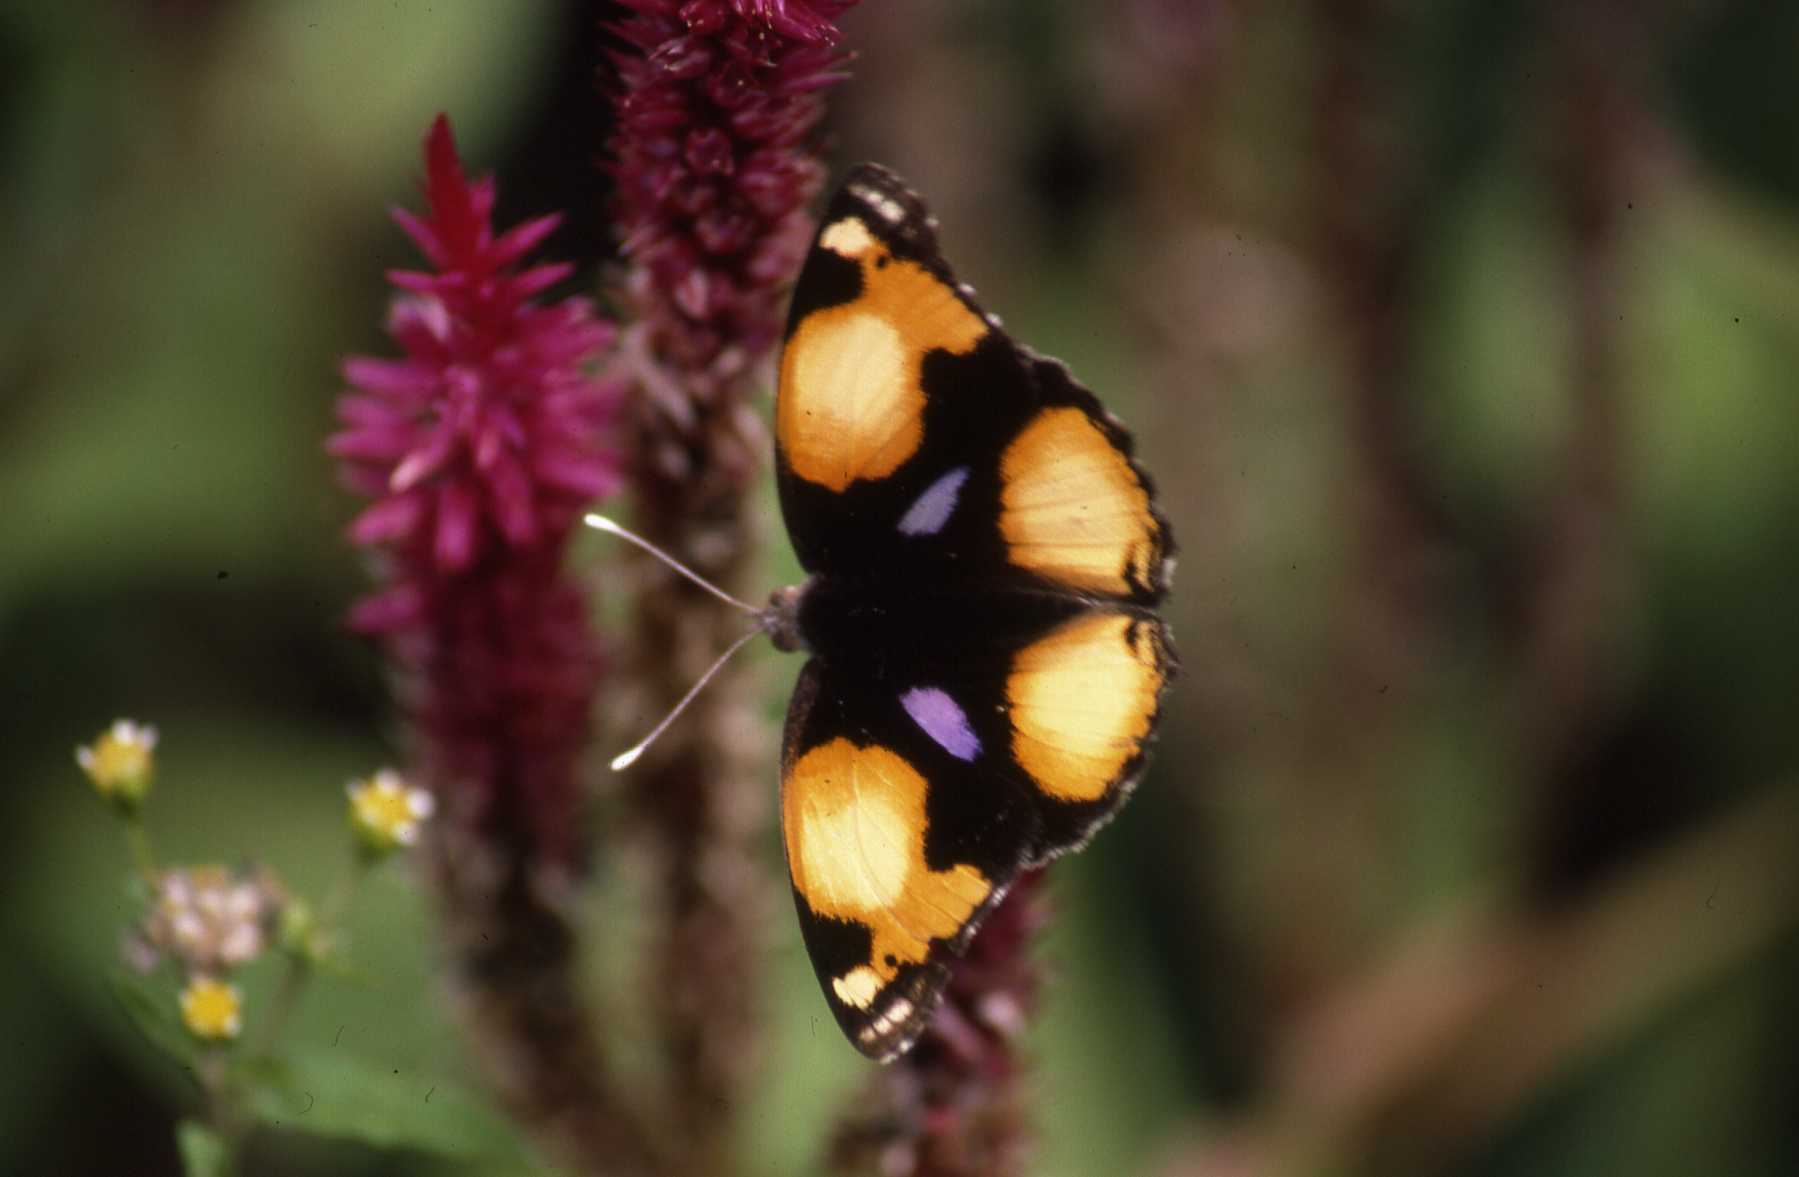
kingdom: Animalia
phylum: Arthropoda
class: Insecta
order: Lepidoptera
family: Nymphalidae
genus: Junonia
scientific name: Junonia hierta
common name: Yellow pansy
